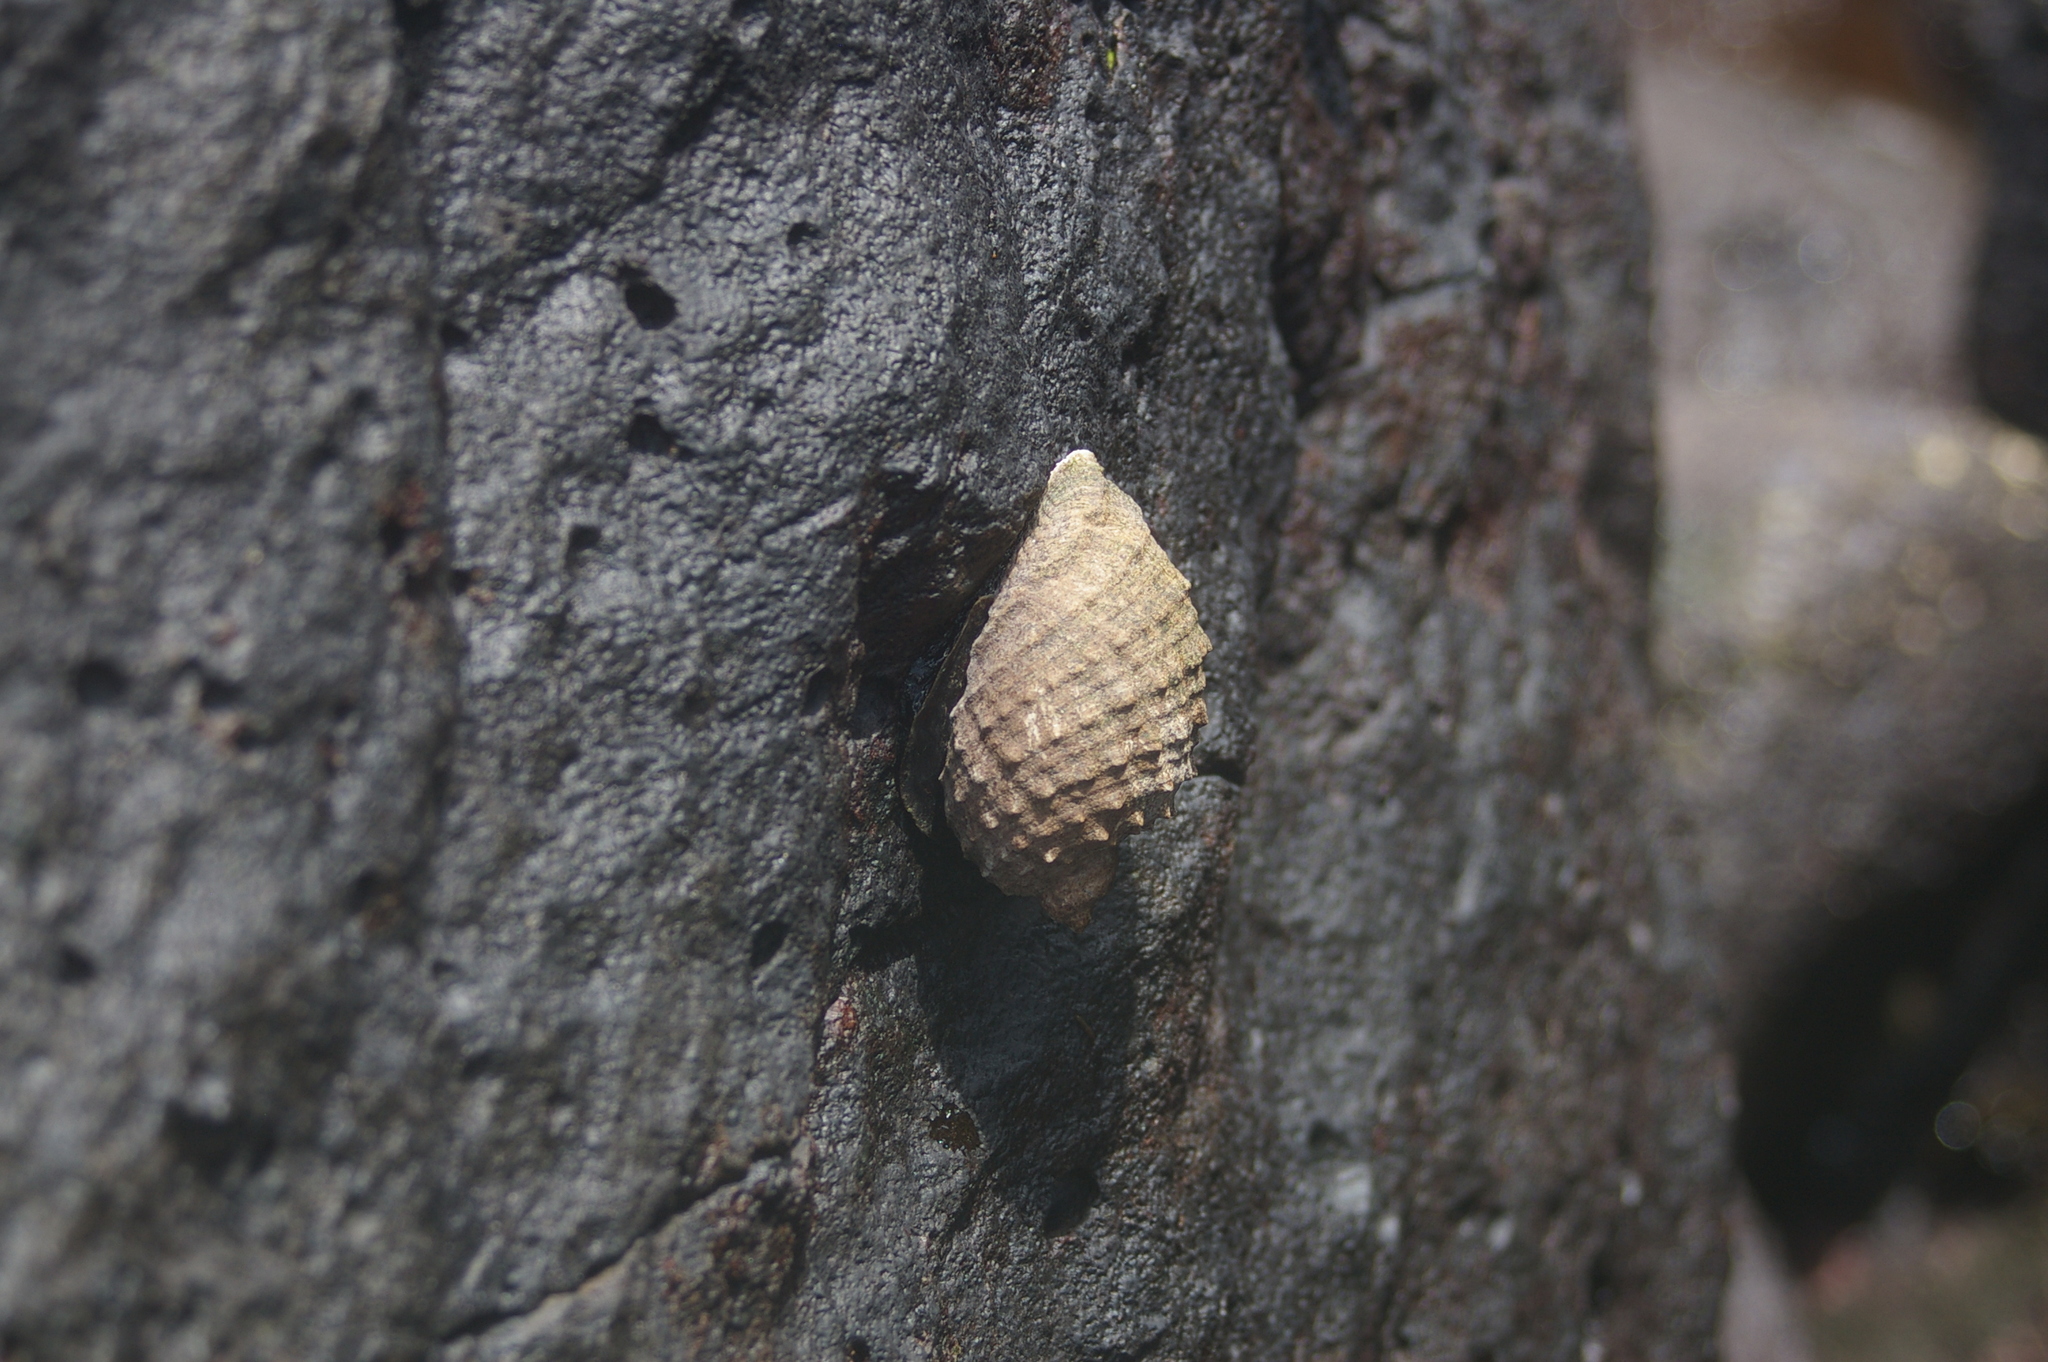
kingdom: Animalia
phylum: Mollusca
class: Gastropoda
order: Neogastropoda
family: Muricidae
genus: Plicopurpura
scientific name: Plicopurpura columellaris
